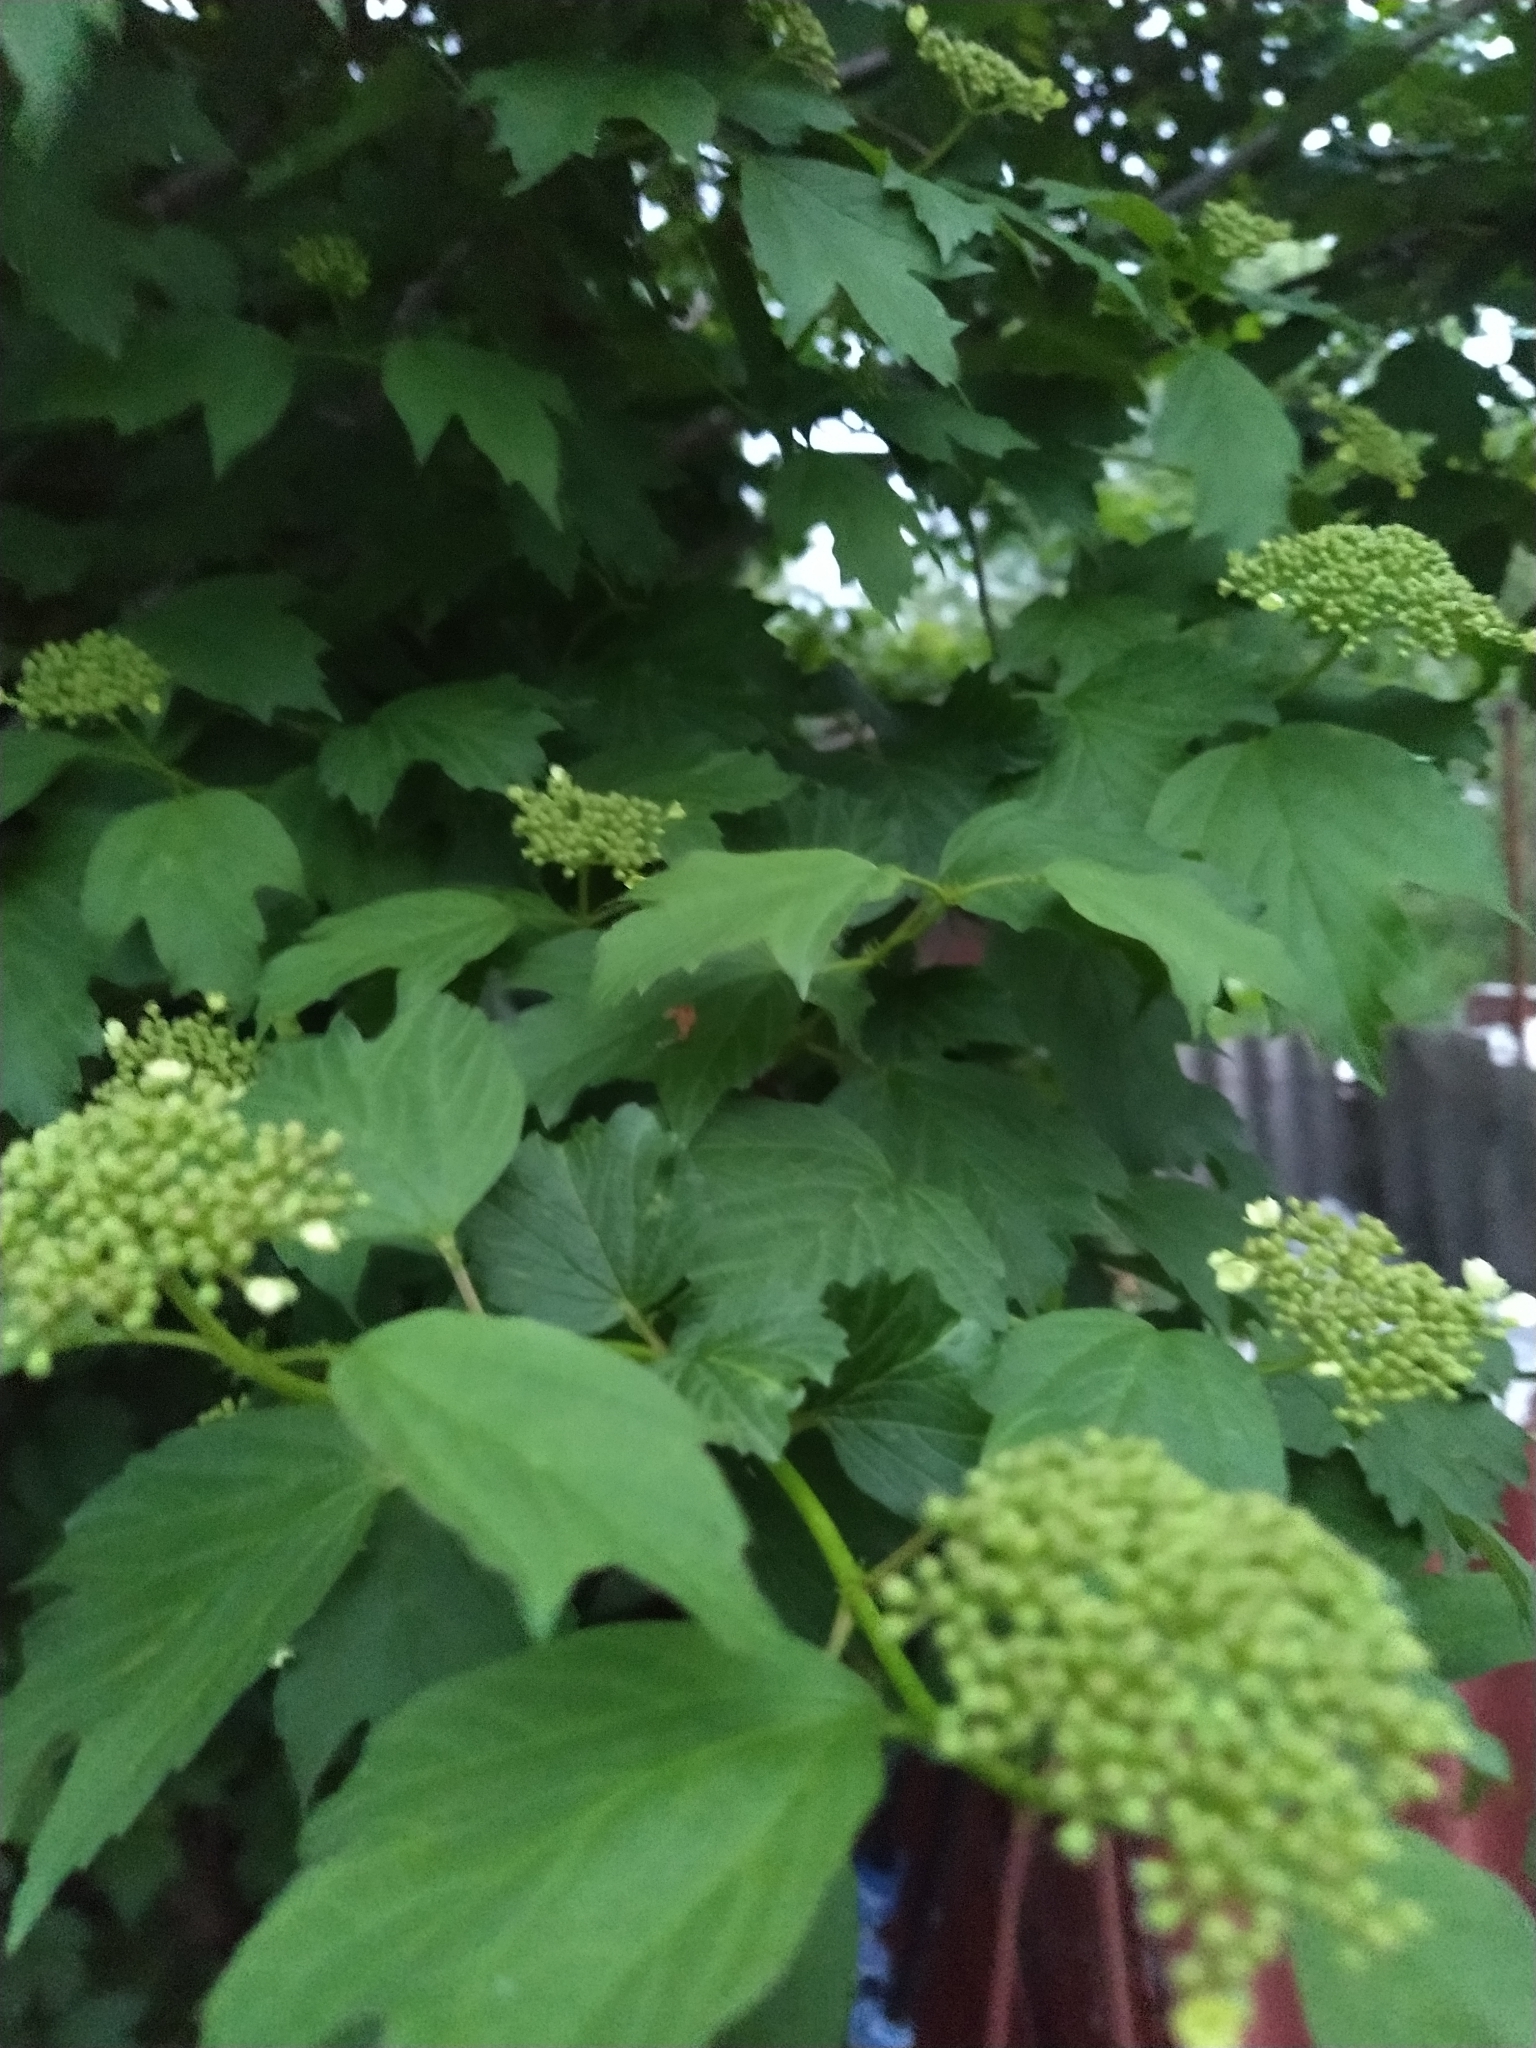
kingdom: Plantae
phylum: Tracheophyta
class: Magnoliopsida
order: Dipsacales
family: Viburnaceae
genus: Viburnum
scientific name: Viburnum opulus
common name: Guelder-rose
